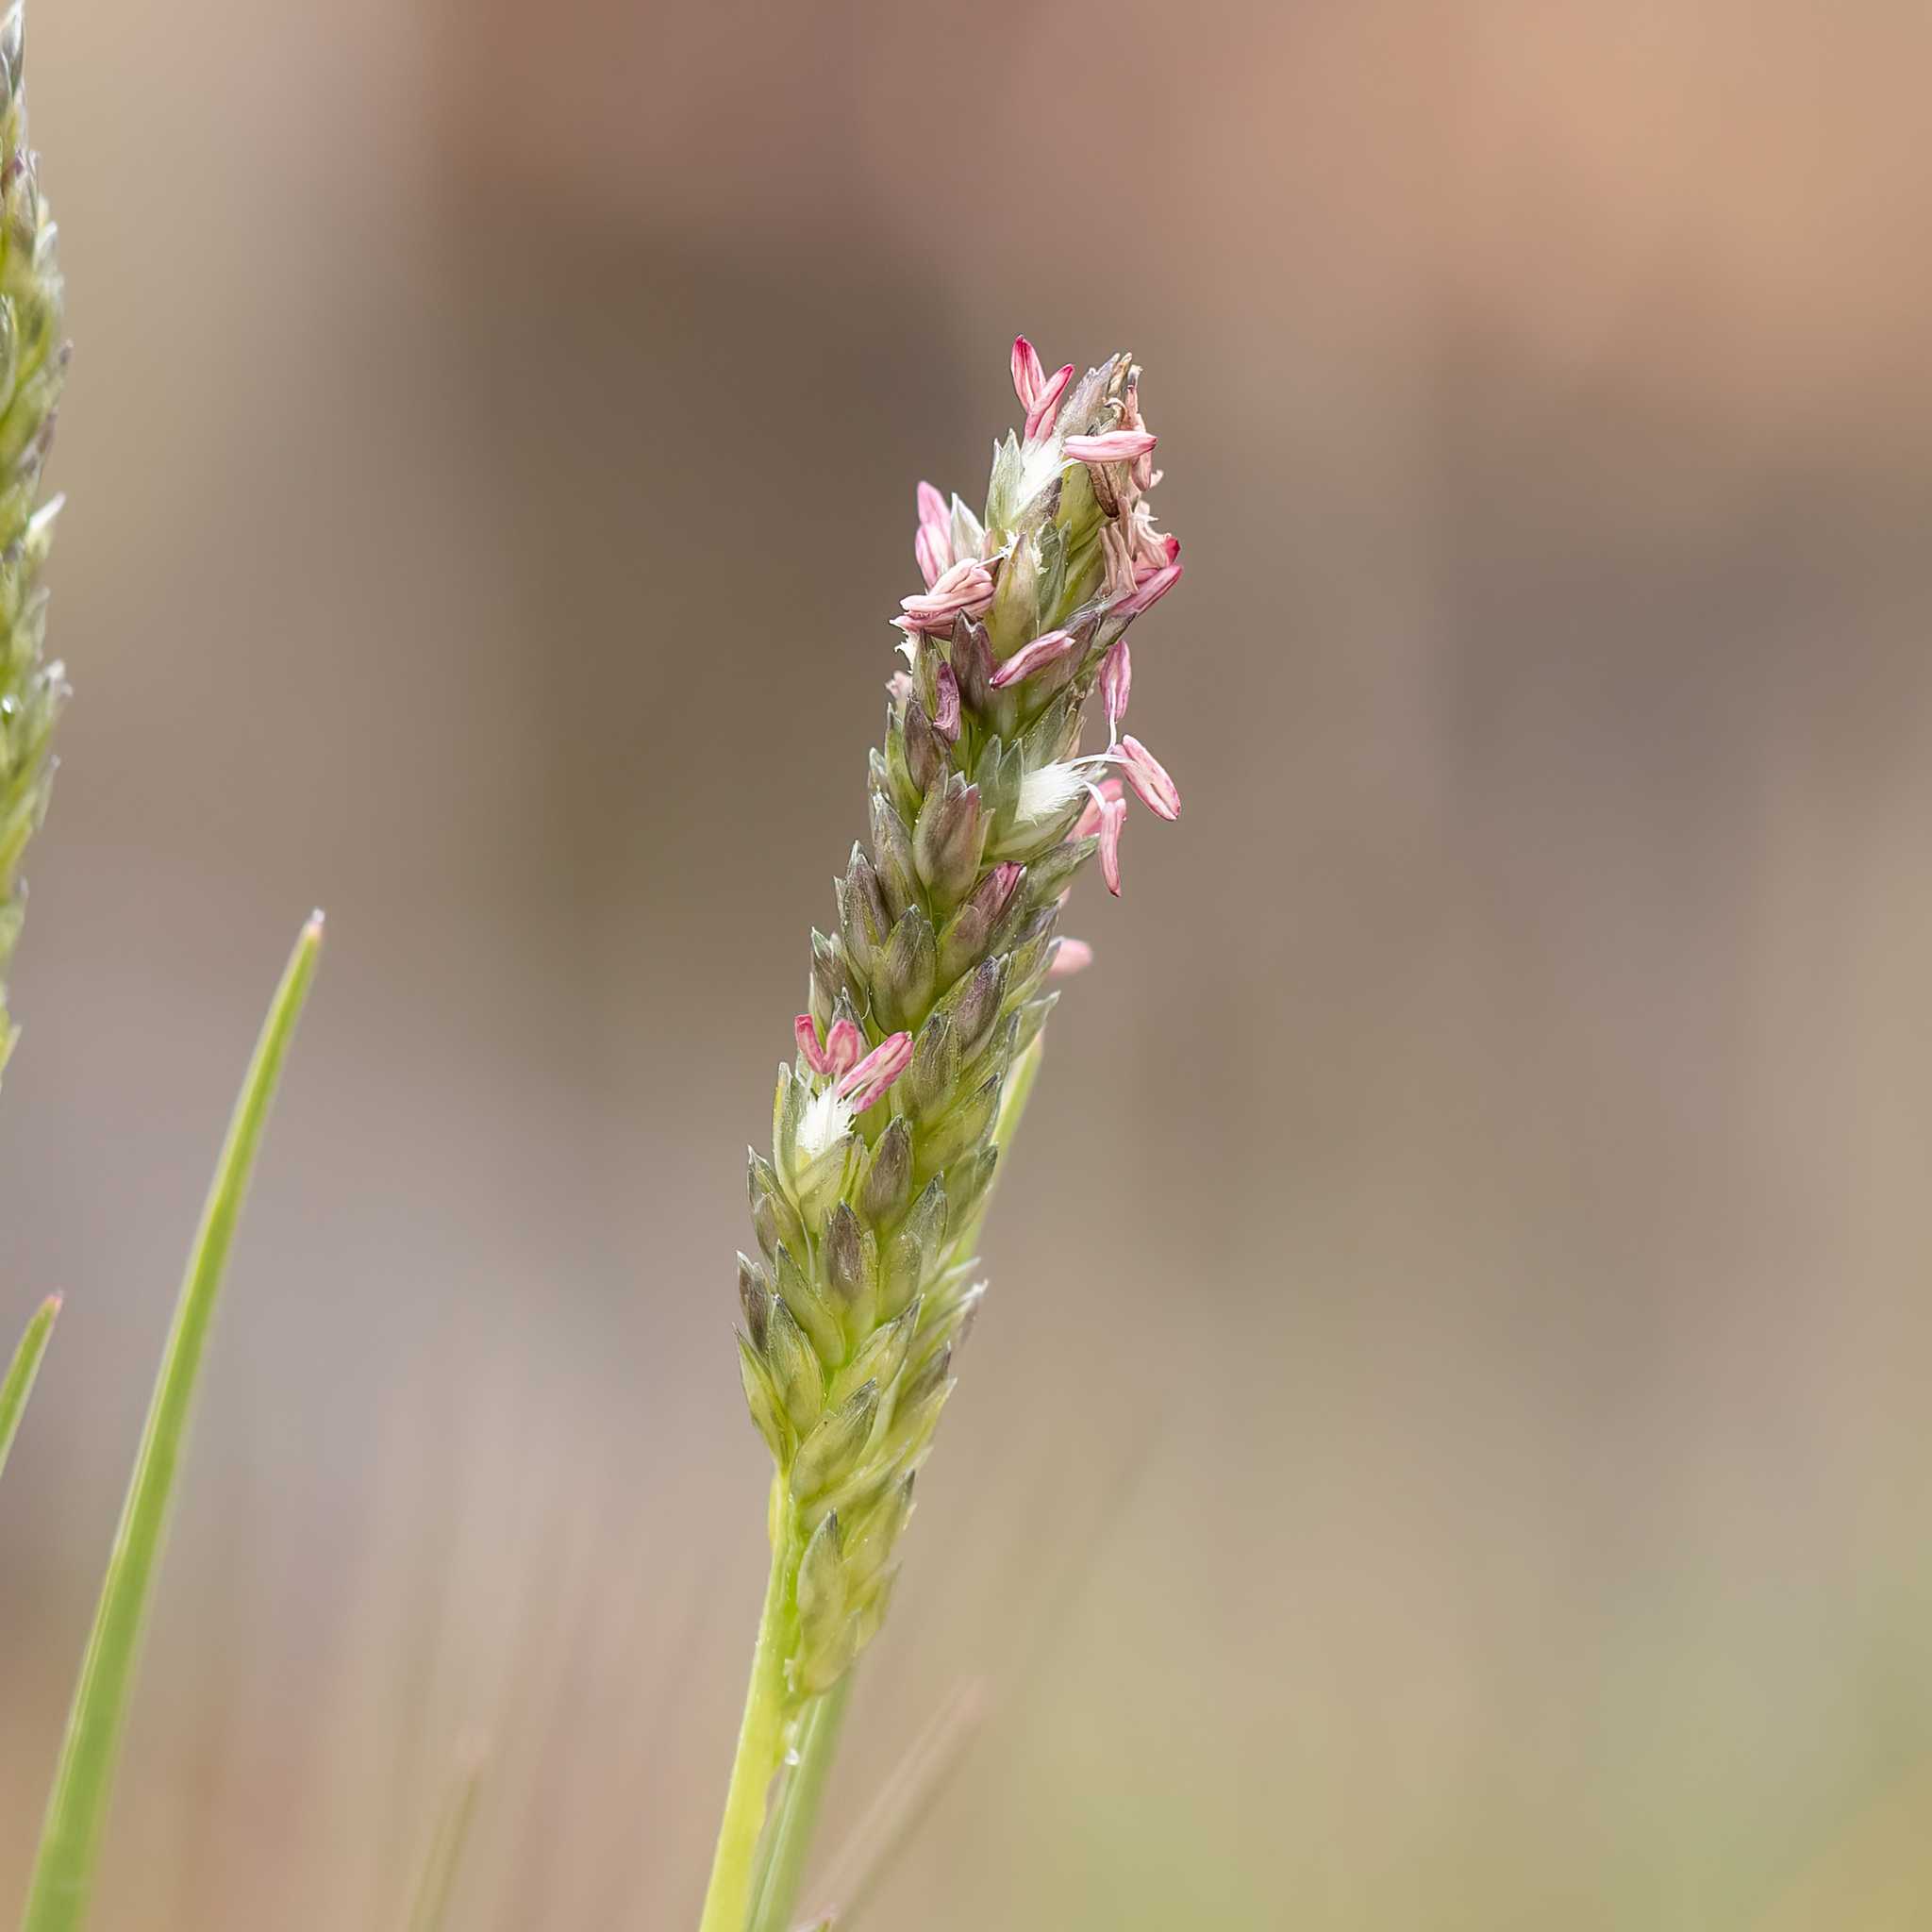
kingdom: Plantae
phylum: Tracheophyta
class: Liliopsida
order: Poales
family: Poaceae
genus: Sporobolus
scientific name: Sporobolus virginicus
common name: Beach dropseed
